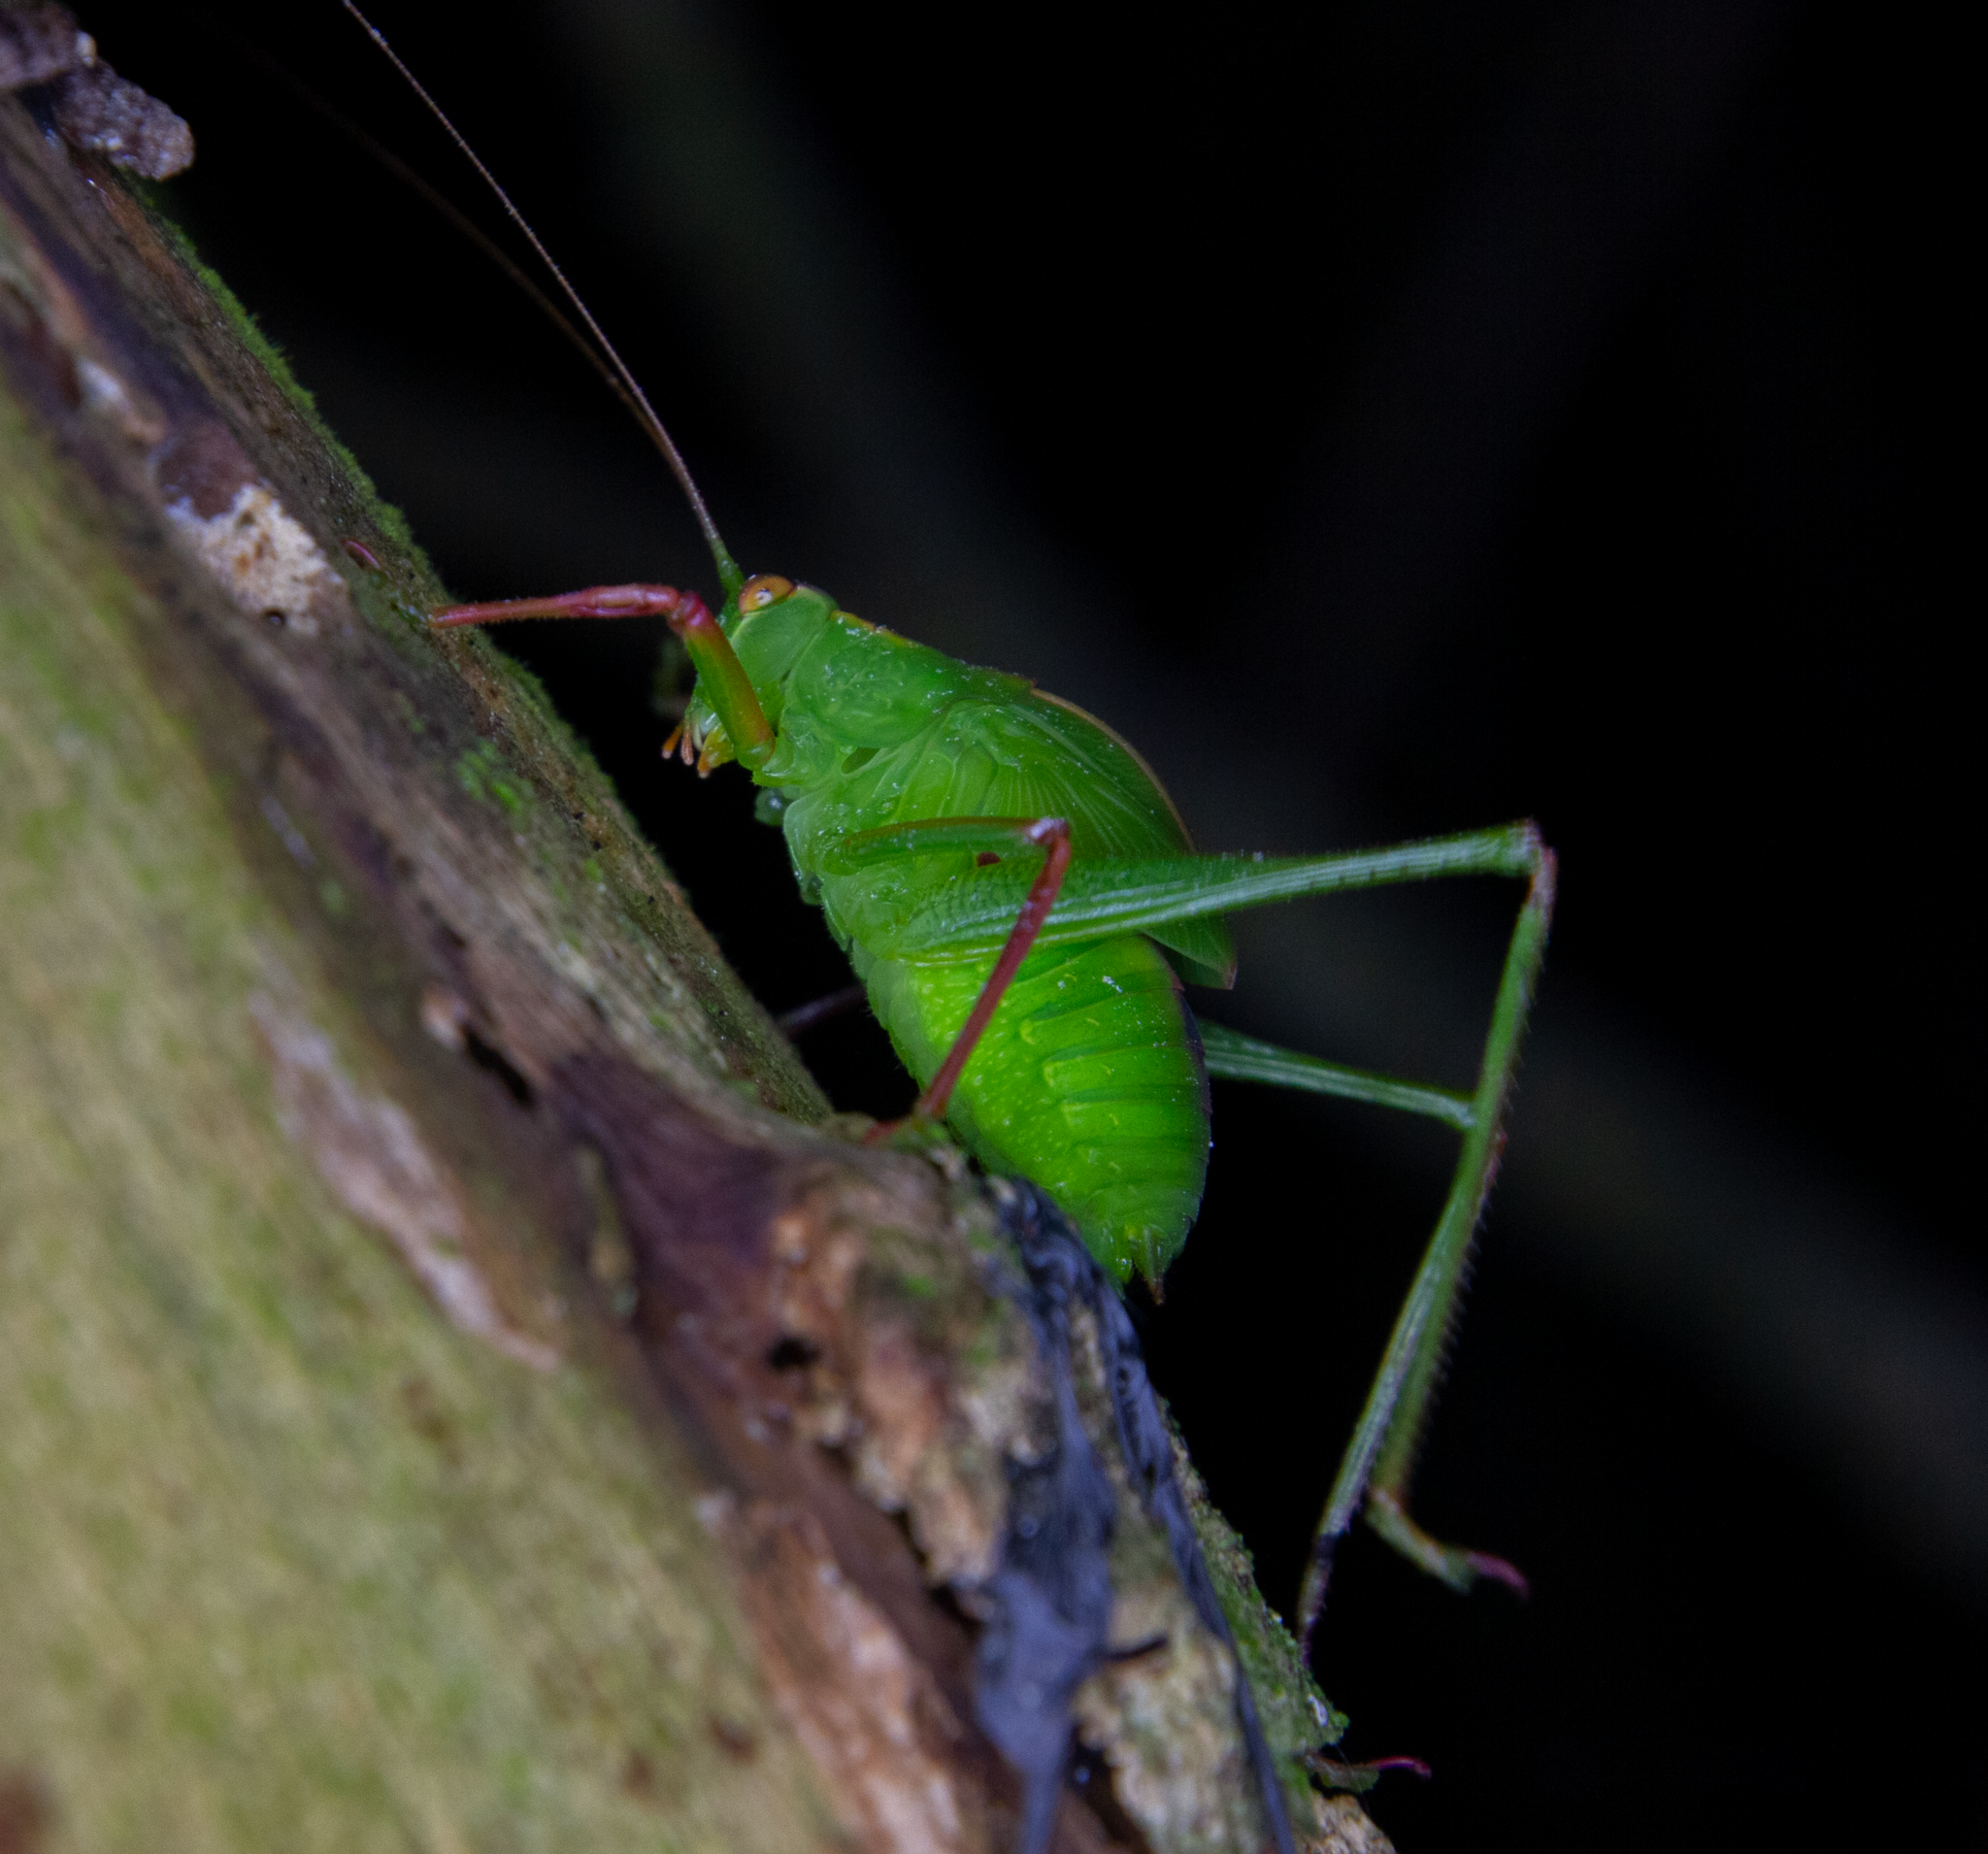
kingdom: Animalia
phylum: Arthropoda
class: Insecta
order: Orthoptera
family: Tettigoniidae
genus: Caedicia
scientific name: Caedicia simplex
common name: Common garden katydid
